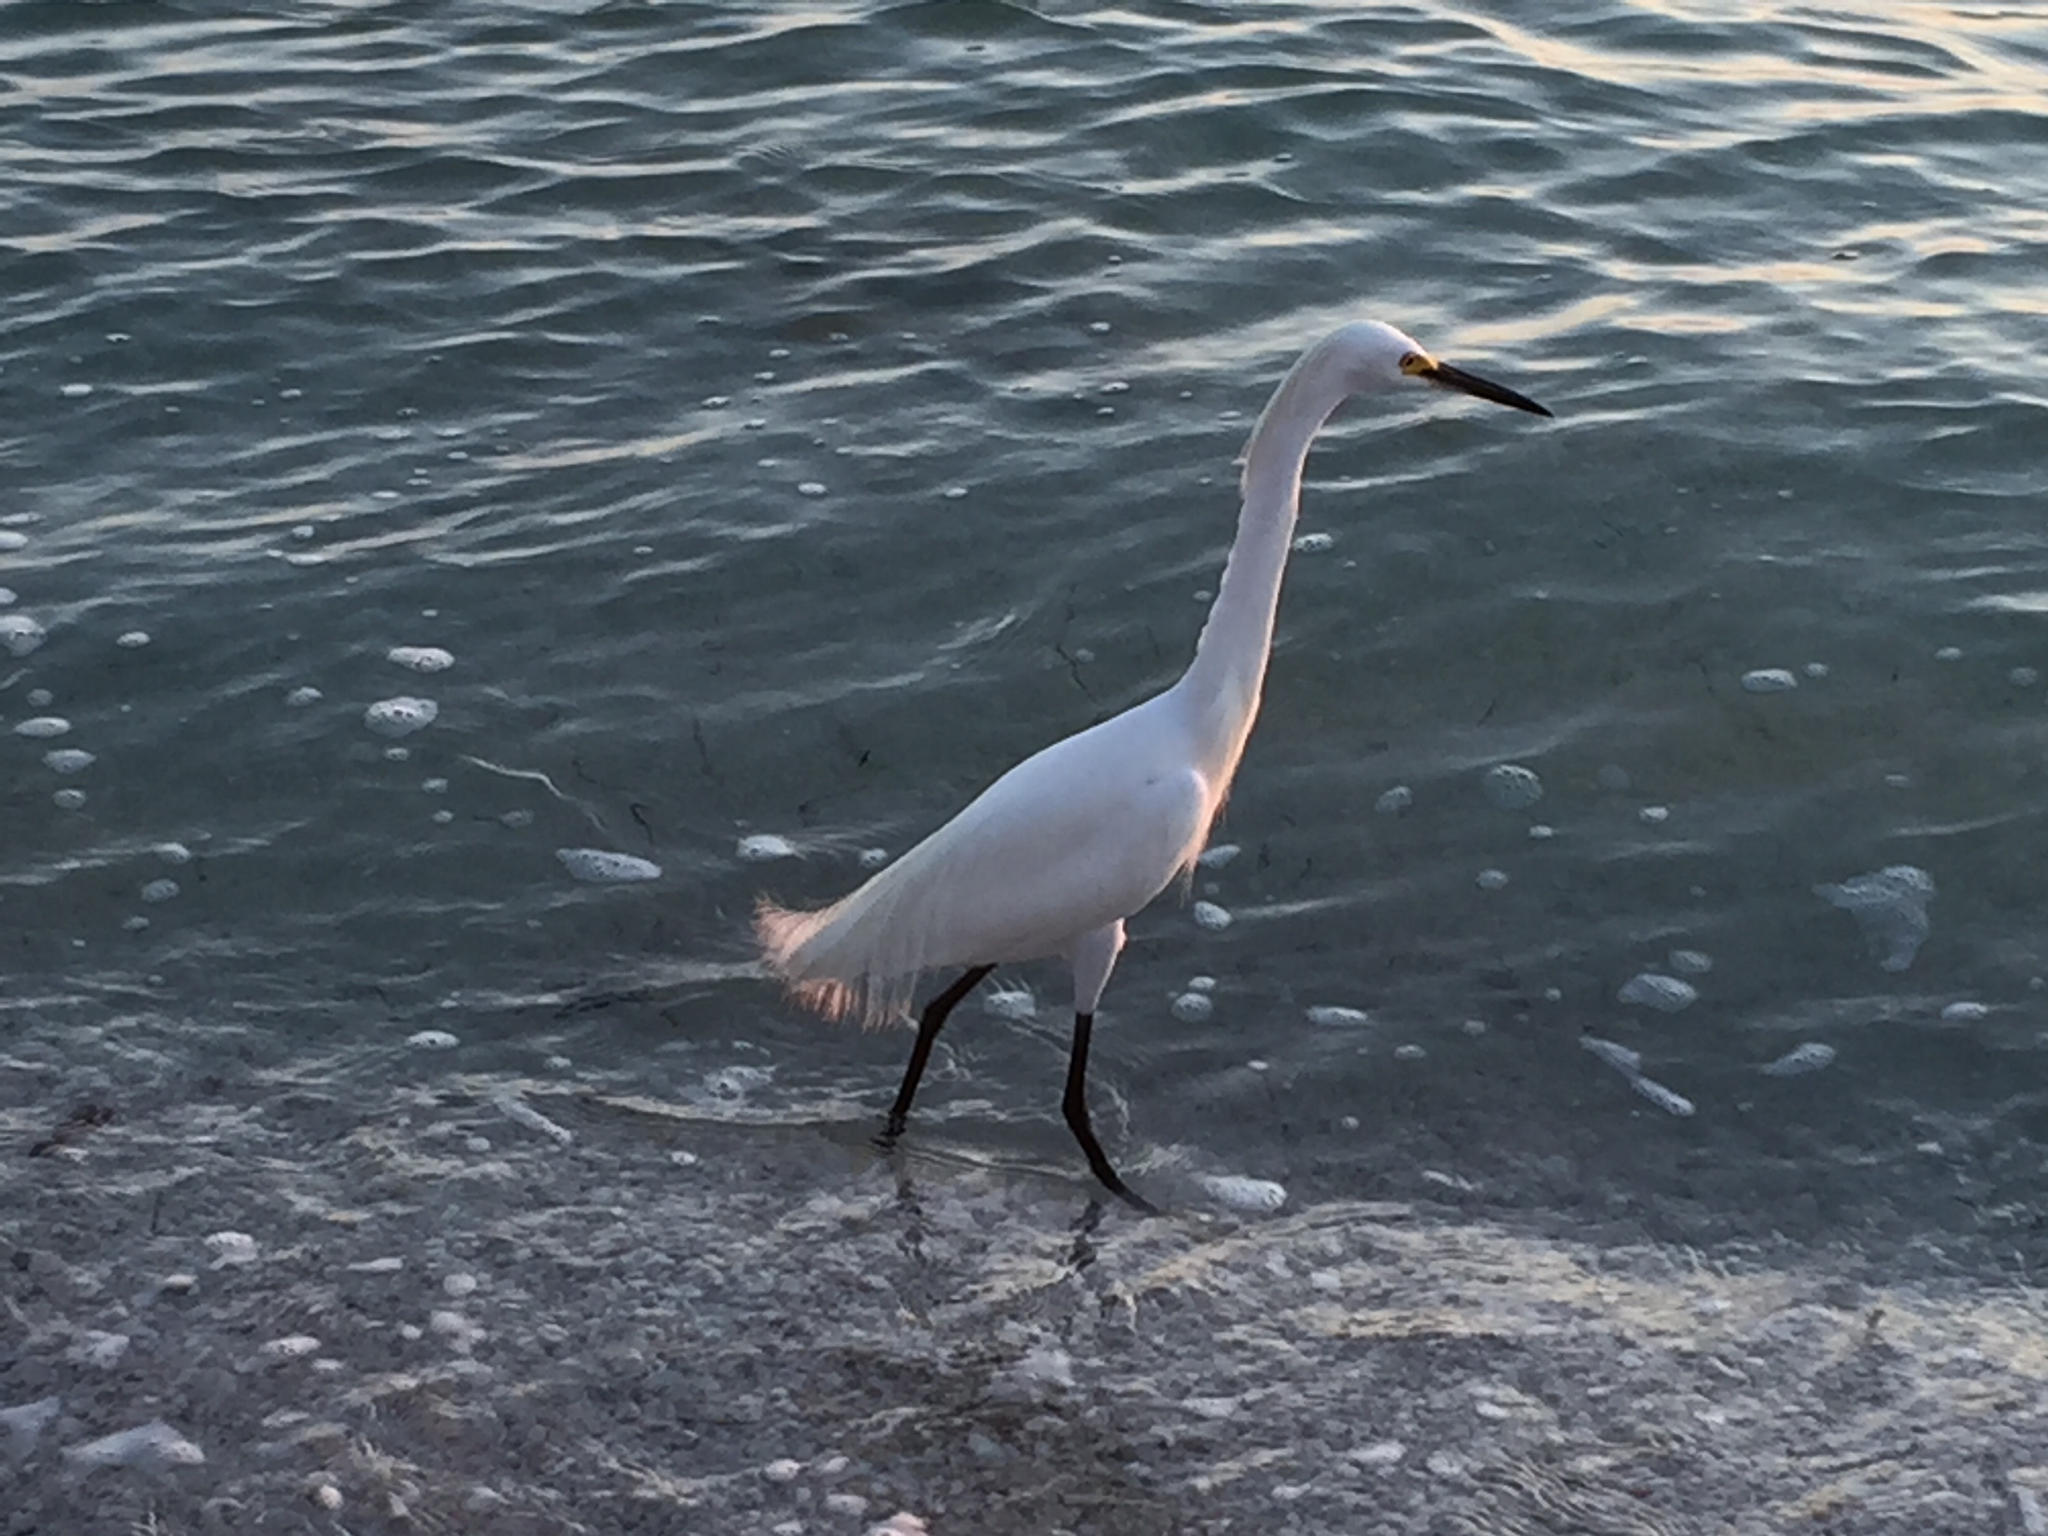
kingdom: Animalia
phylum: Chordata
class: Aves
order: Pelecaniformes
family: Ardeidae
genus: Egretta
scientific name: Egretta thula
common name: Snowy egret
